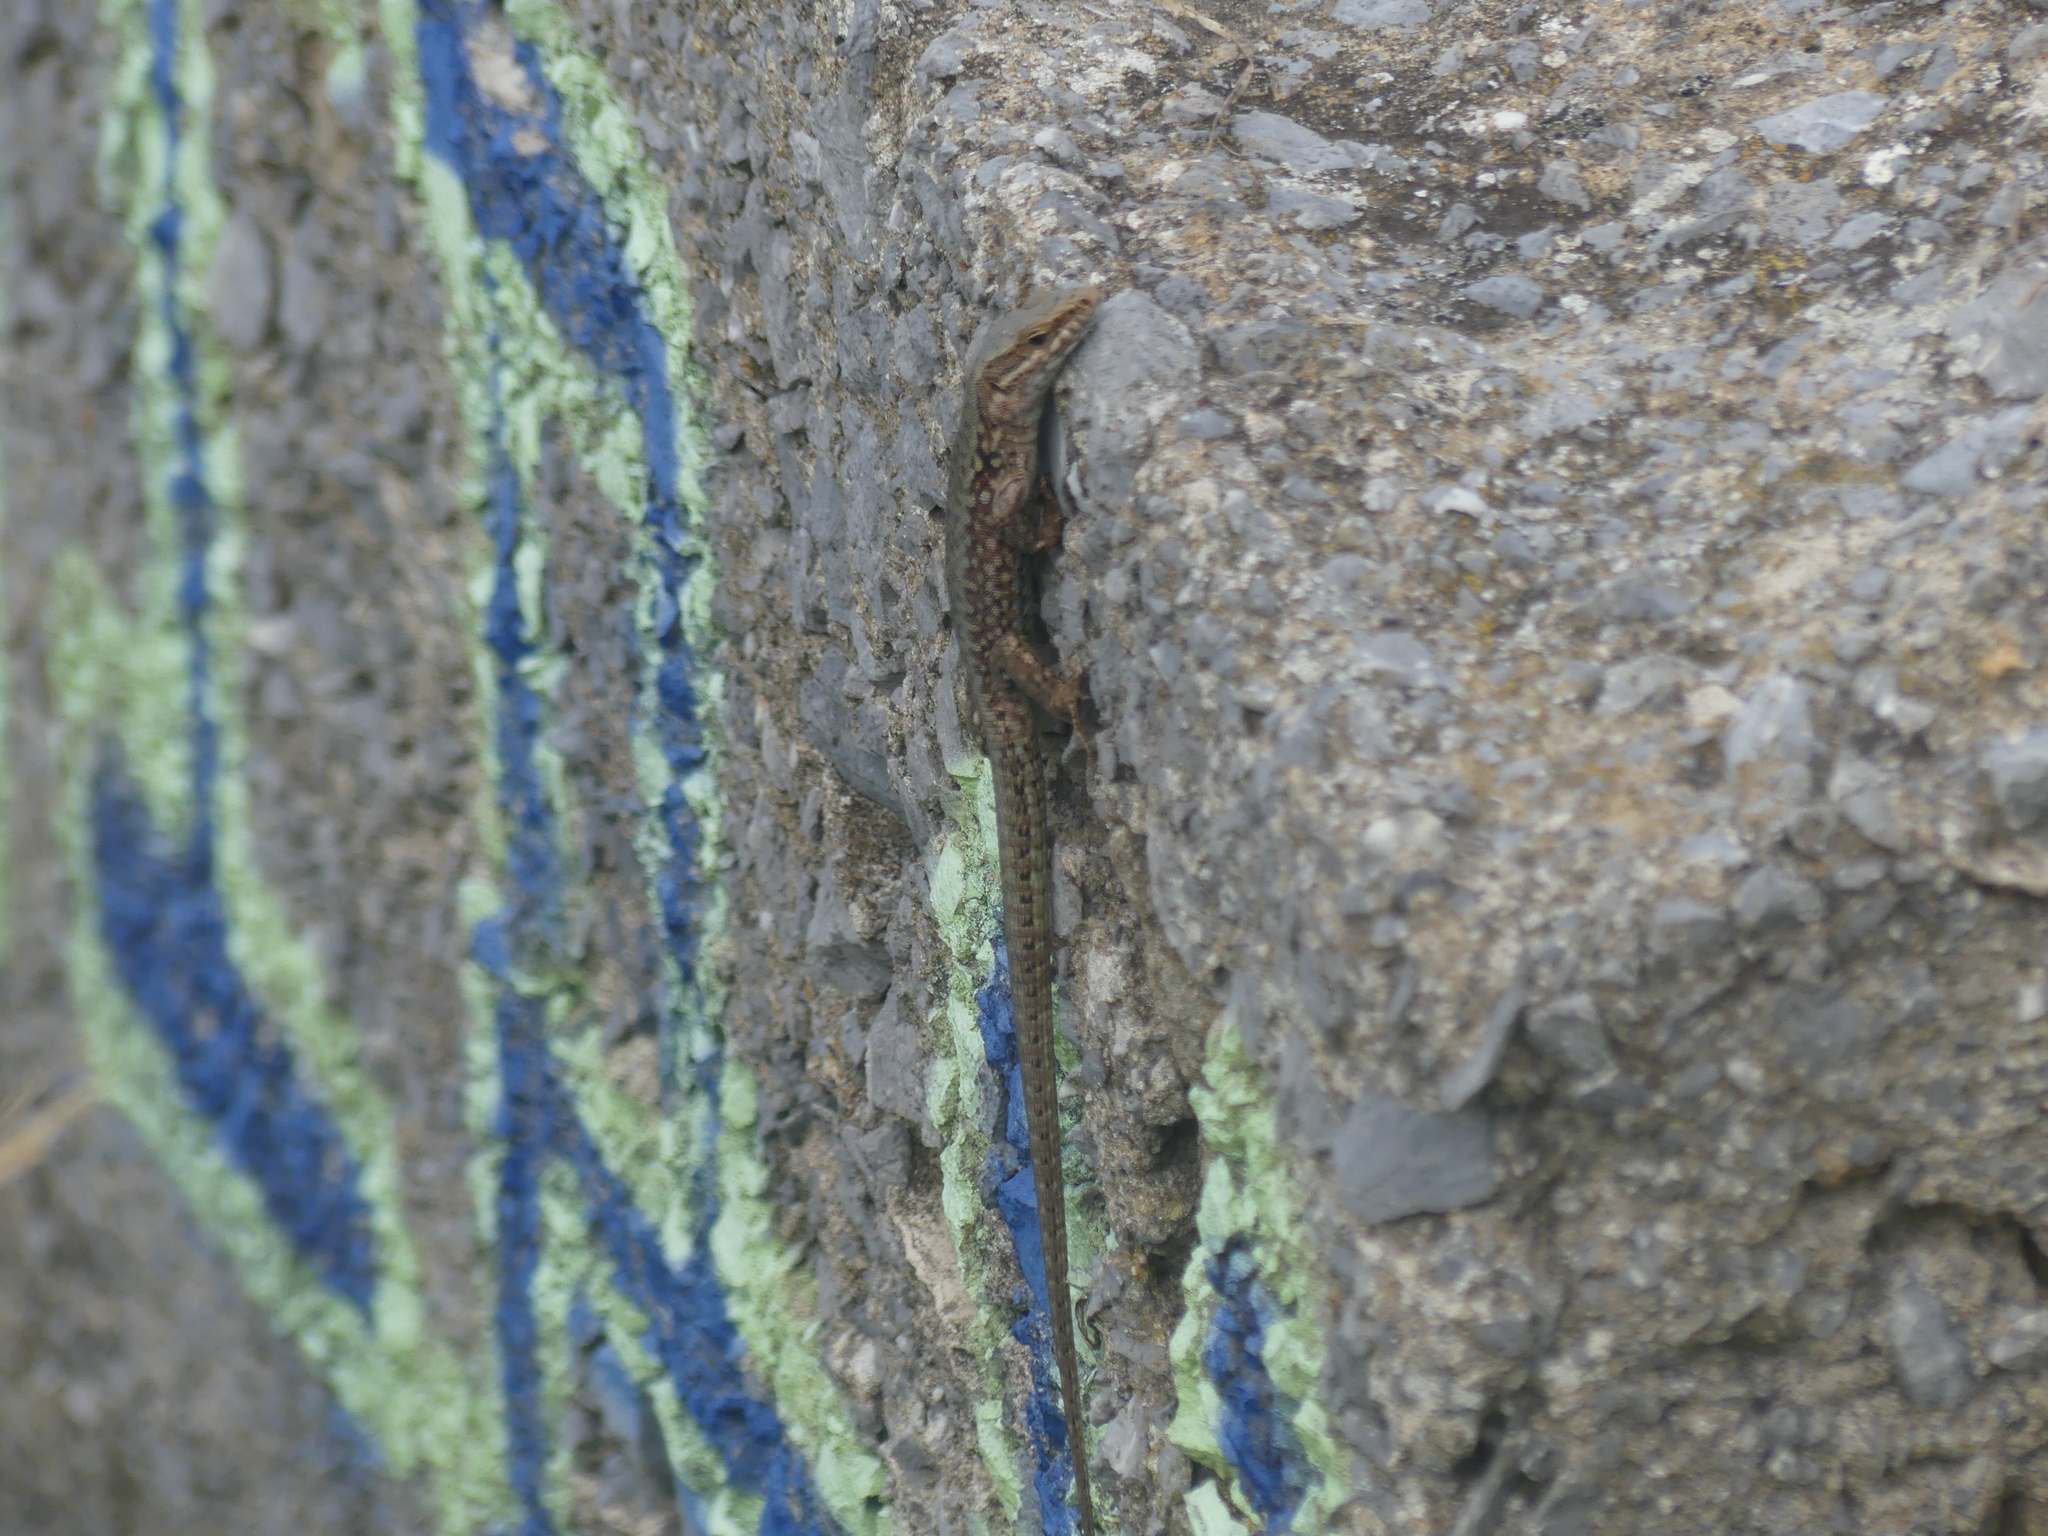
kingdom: Animalia
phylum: Chordata
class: Squamata
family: Lacertidae
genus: Podarcis
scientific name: Podarcis muralis
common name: Common wall lizard
